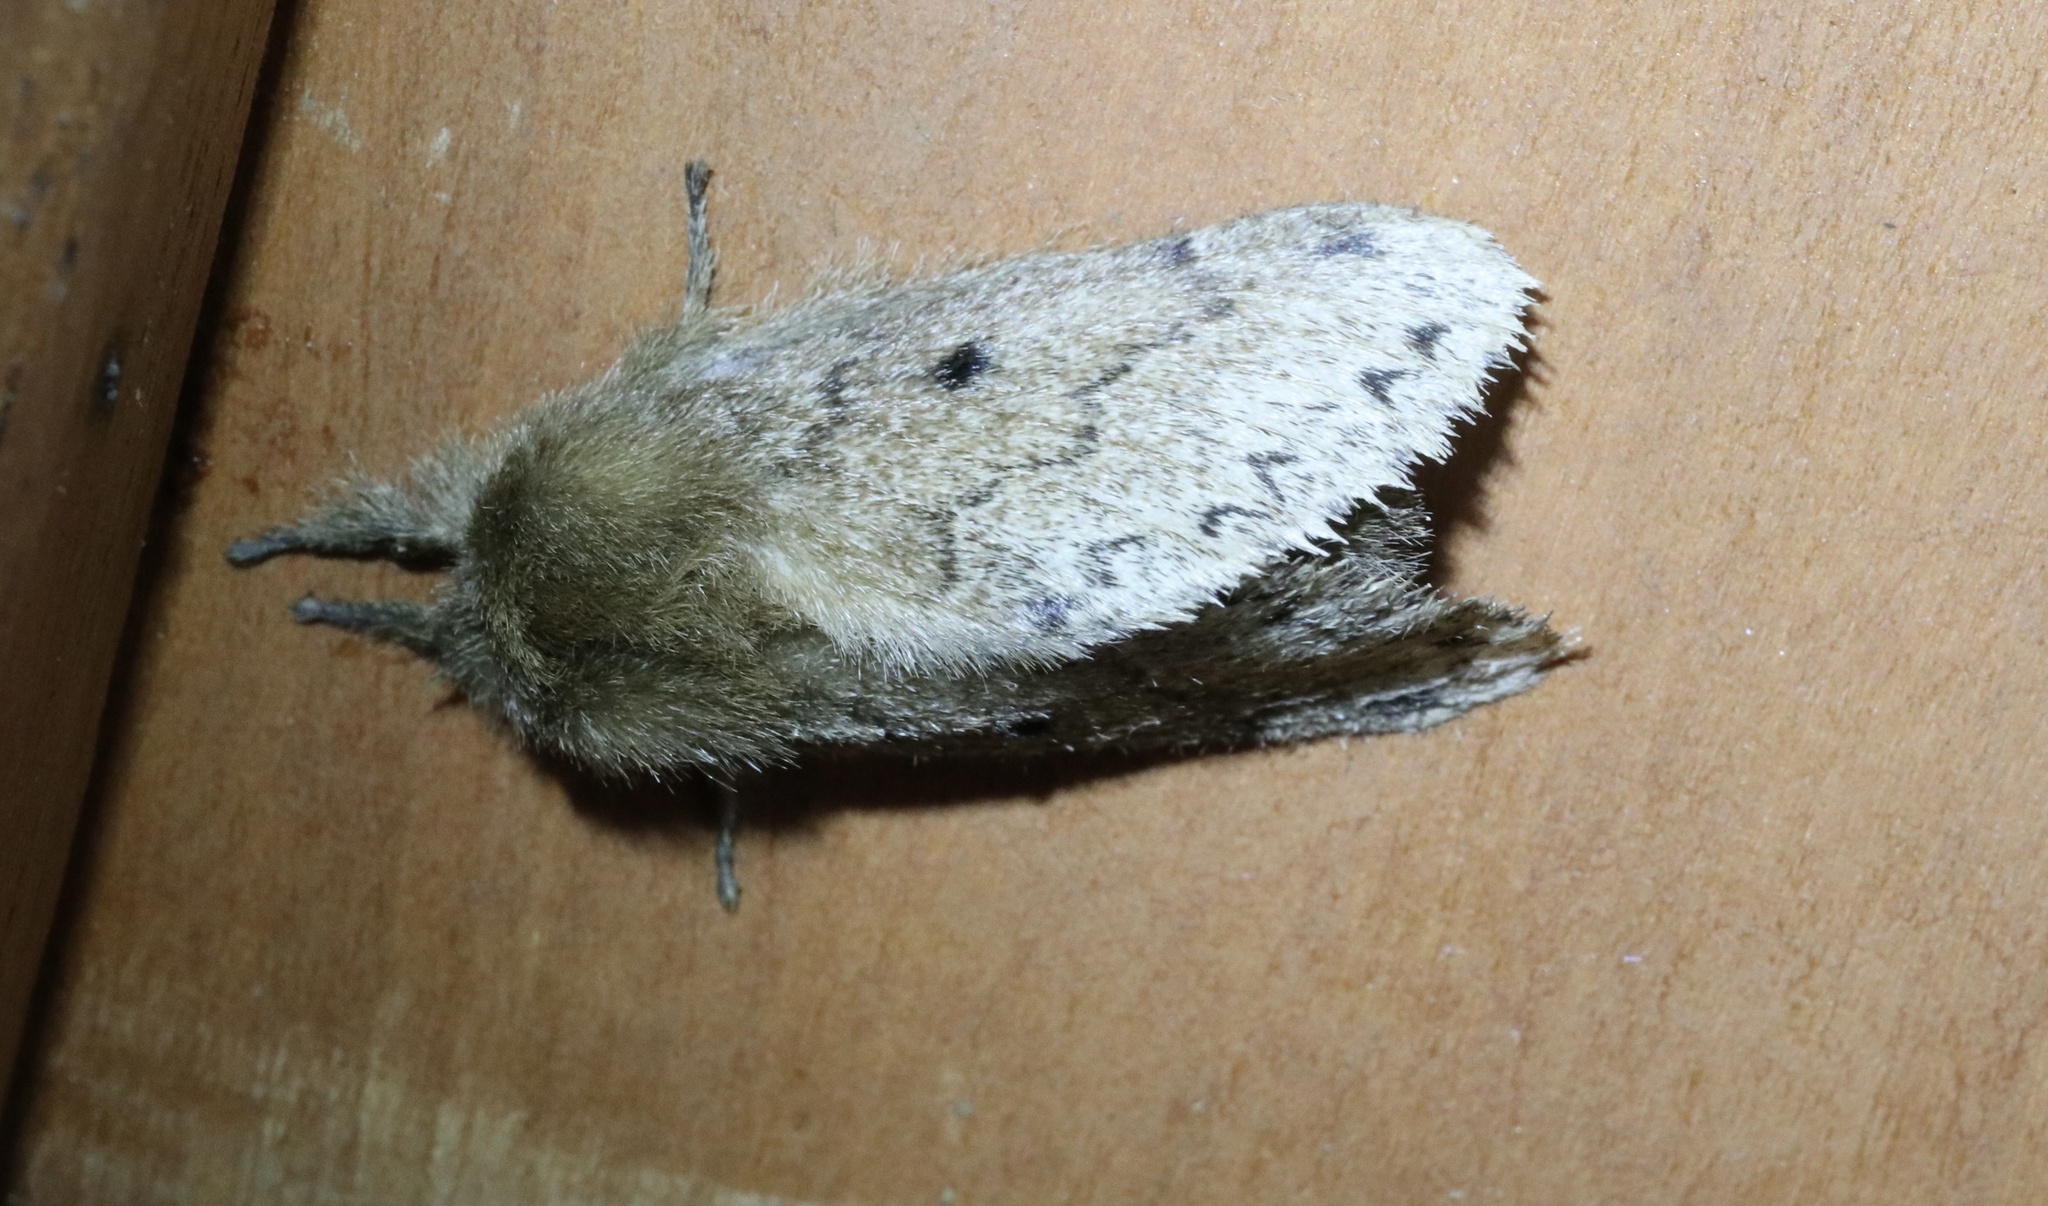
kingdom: Animalia
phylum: Arthropoda
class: Insecta
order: Lepidoptera
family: Lasiocampidae
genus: Macromphalia
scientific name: Macromphalia ancilla
